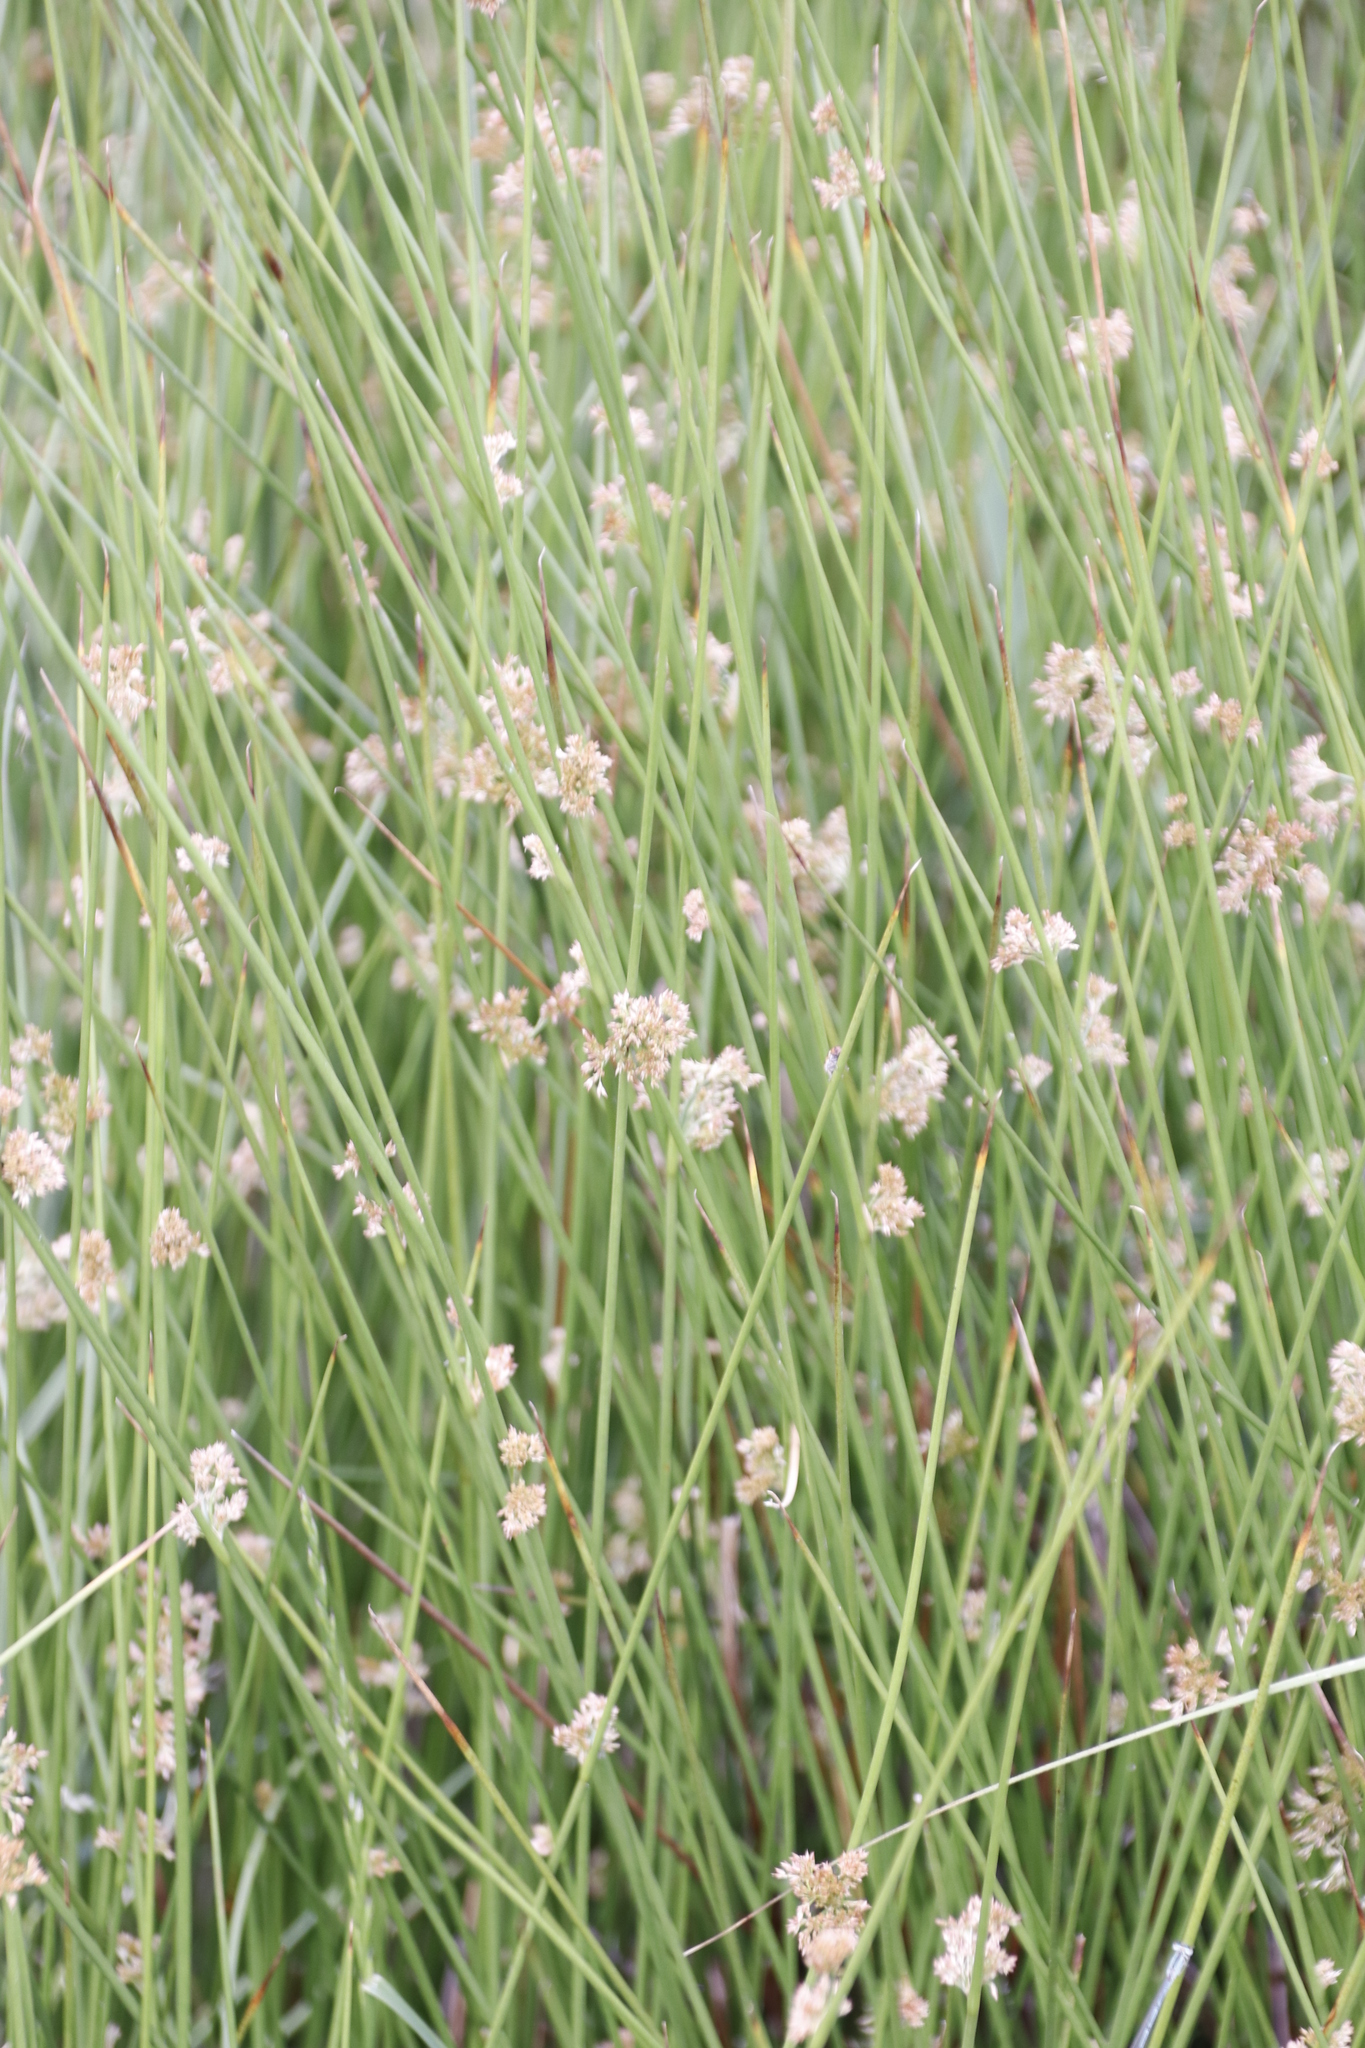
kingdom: Plantae
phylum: Tracheophyta
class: Liliopsida
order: Poales
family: Juncaceae
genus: Juncus
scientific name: Juncus effusus
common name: Soft rush
